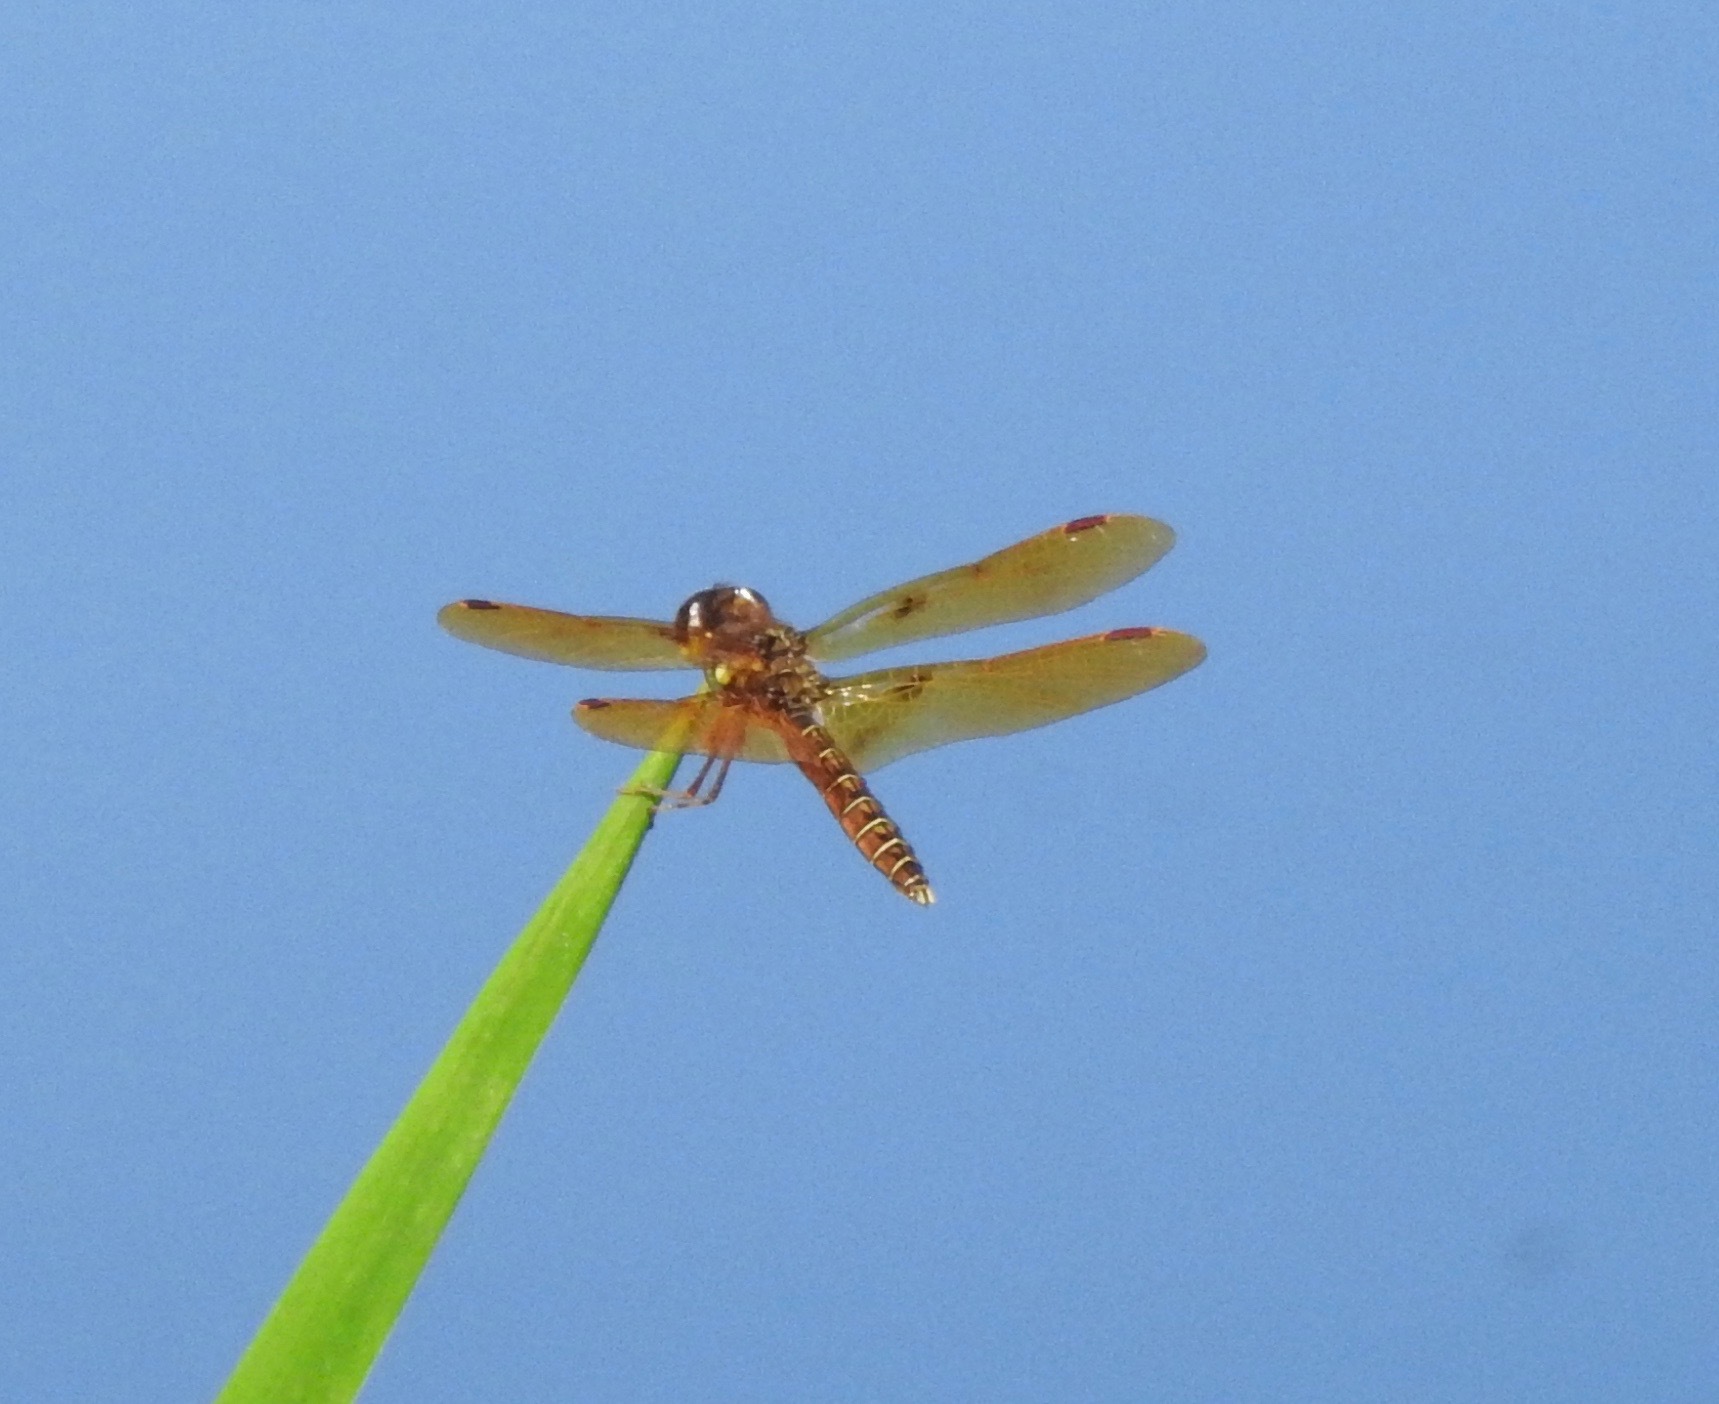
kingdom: Animalia
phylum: Arthropoda
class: Insecta
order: Odonata
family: Libellulidae
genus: Perithemis
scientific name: Perithemis tenera
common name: Eastern amberwing
